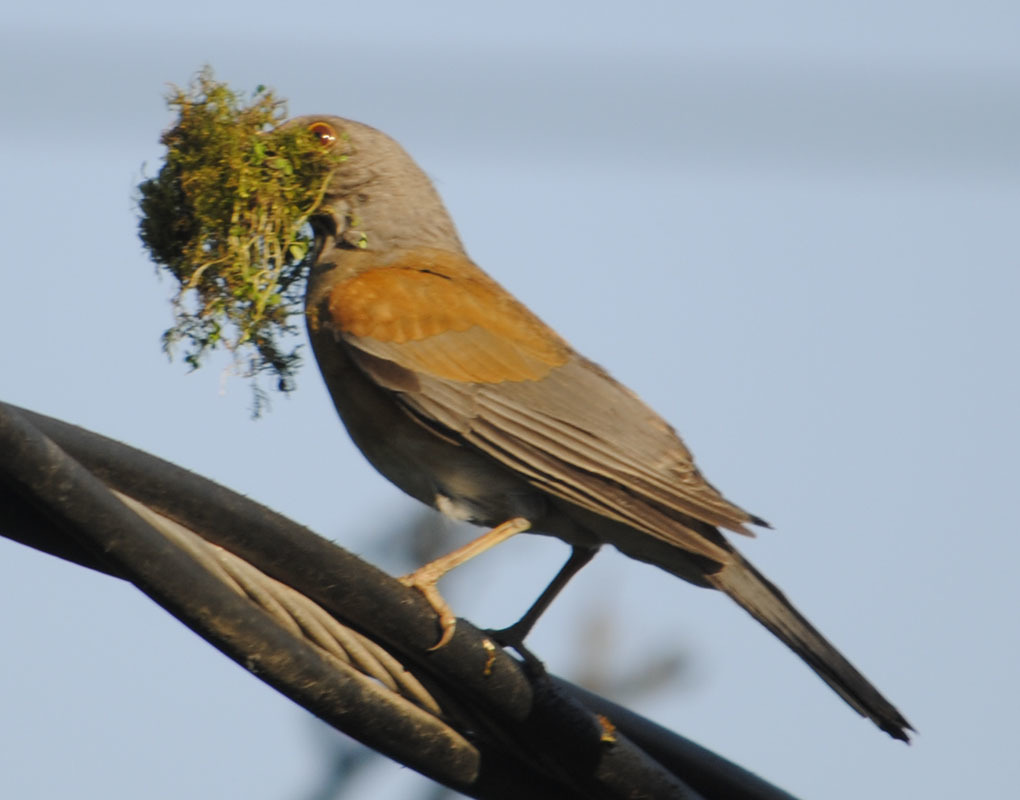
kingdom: Animalia
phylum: Chordata
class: Aves
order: Passeriformes
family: Turdidae
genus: Turdus
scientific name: Turdus rufopalliatus
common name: Rufous-backed robin
